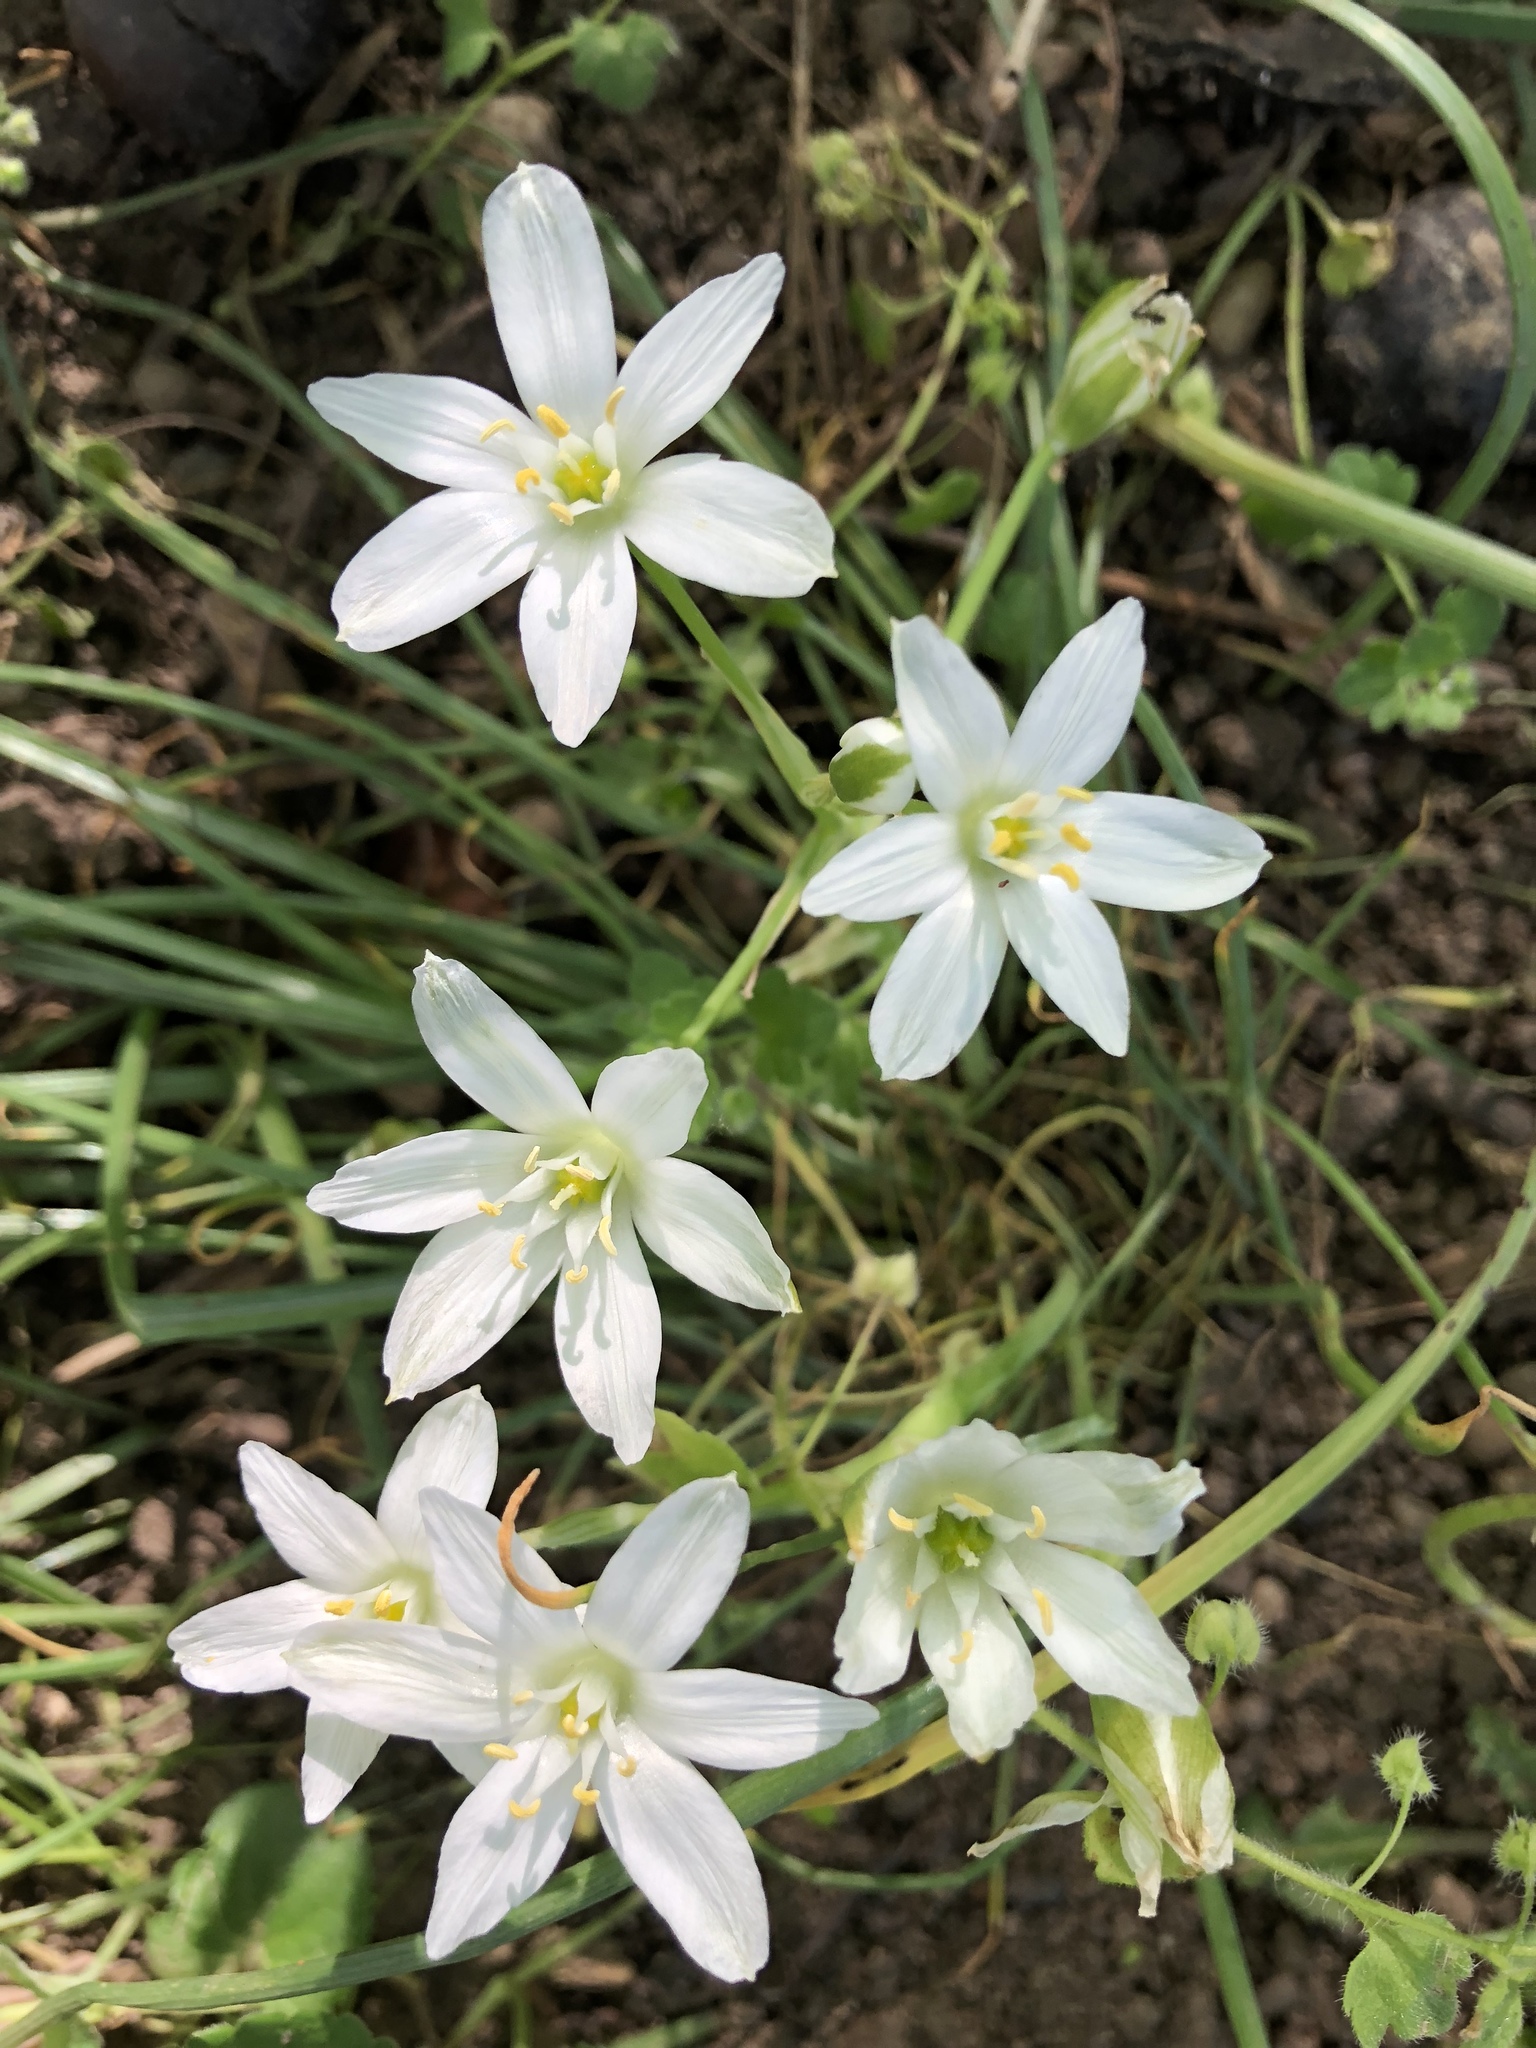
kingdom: Plantae
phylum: Tracheophyta
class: Liliopsida
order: Asparagales
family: Asparagaceae
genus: Ornithogalum
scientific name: Ornithogalum umbellatum
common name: Garden star-of-bethlehem
